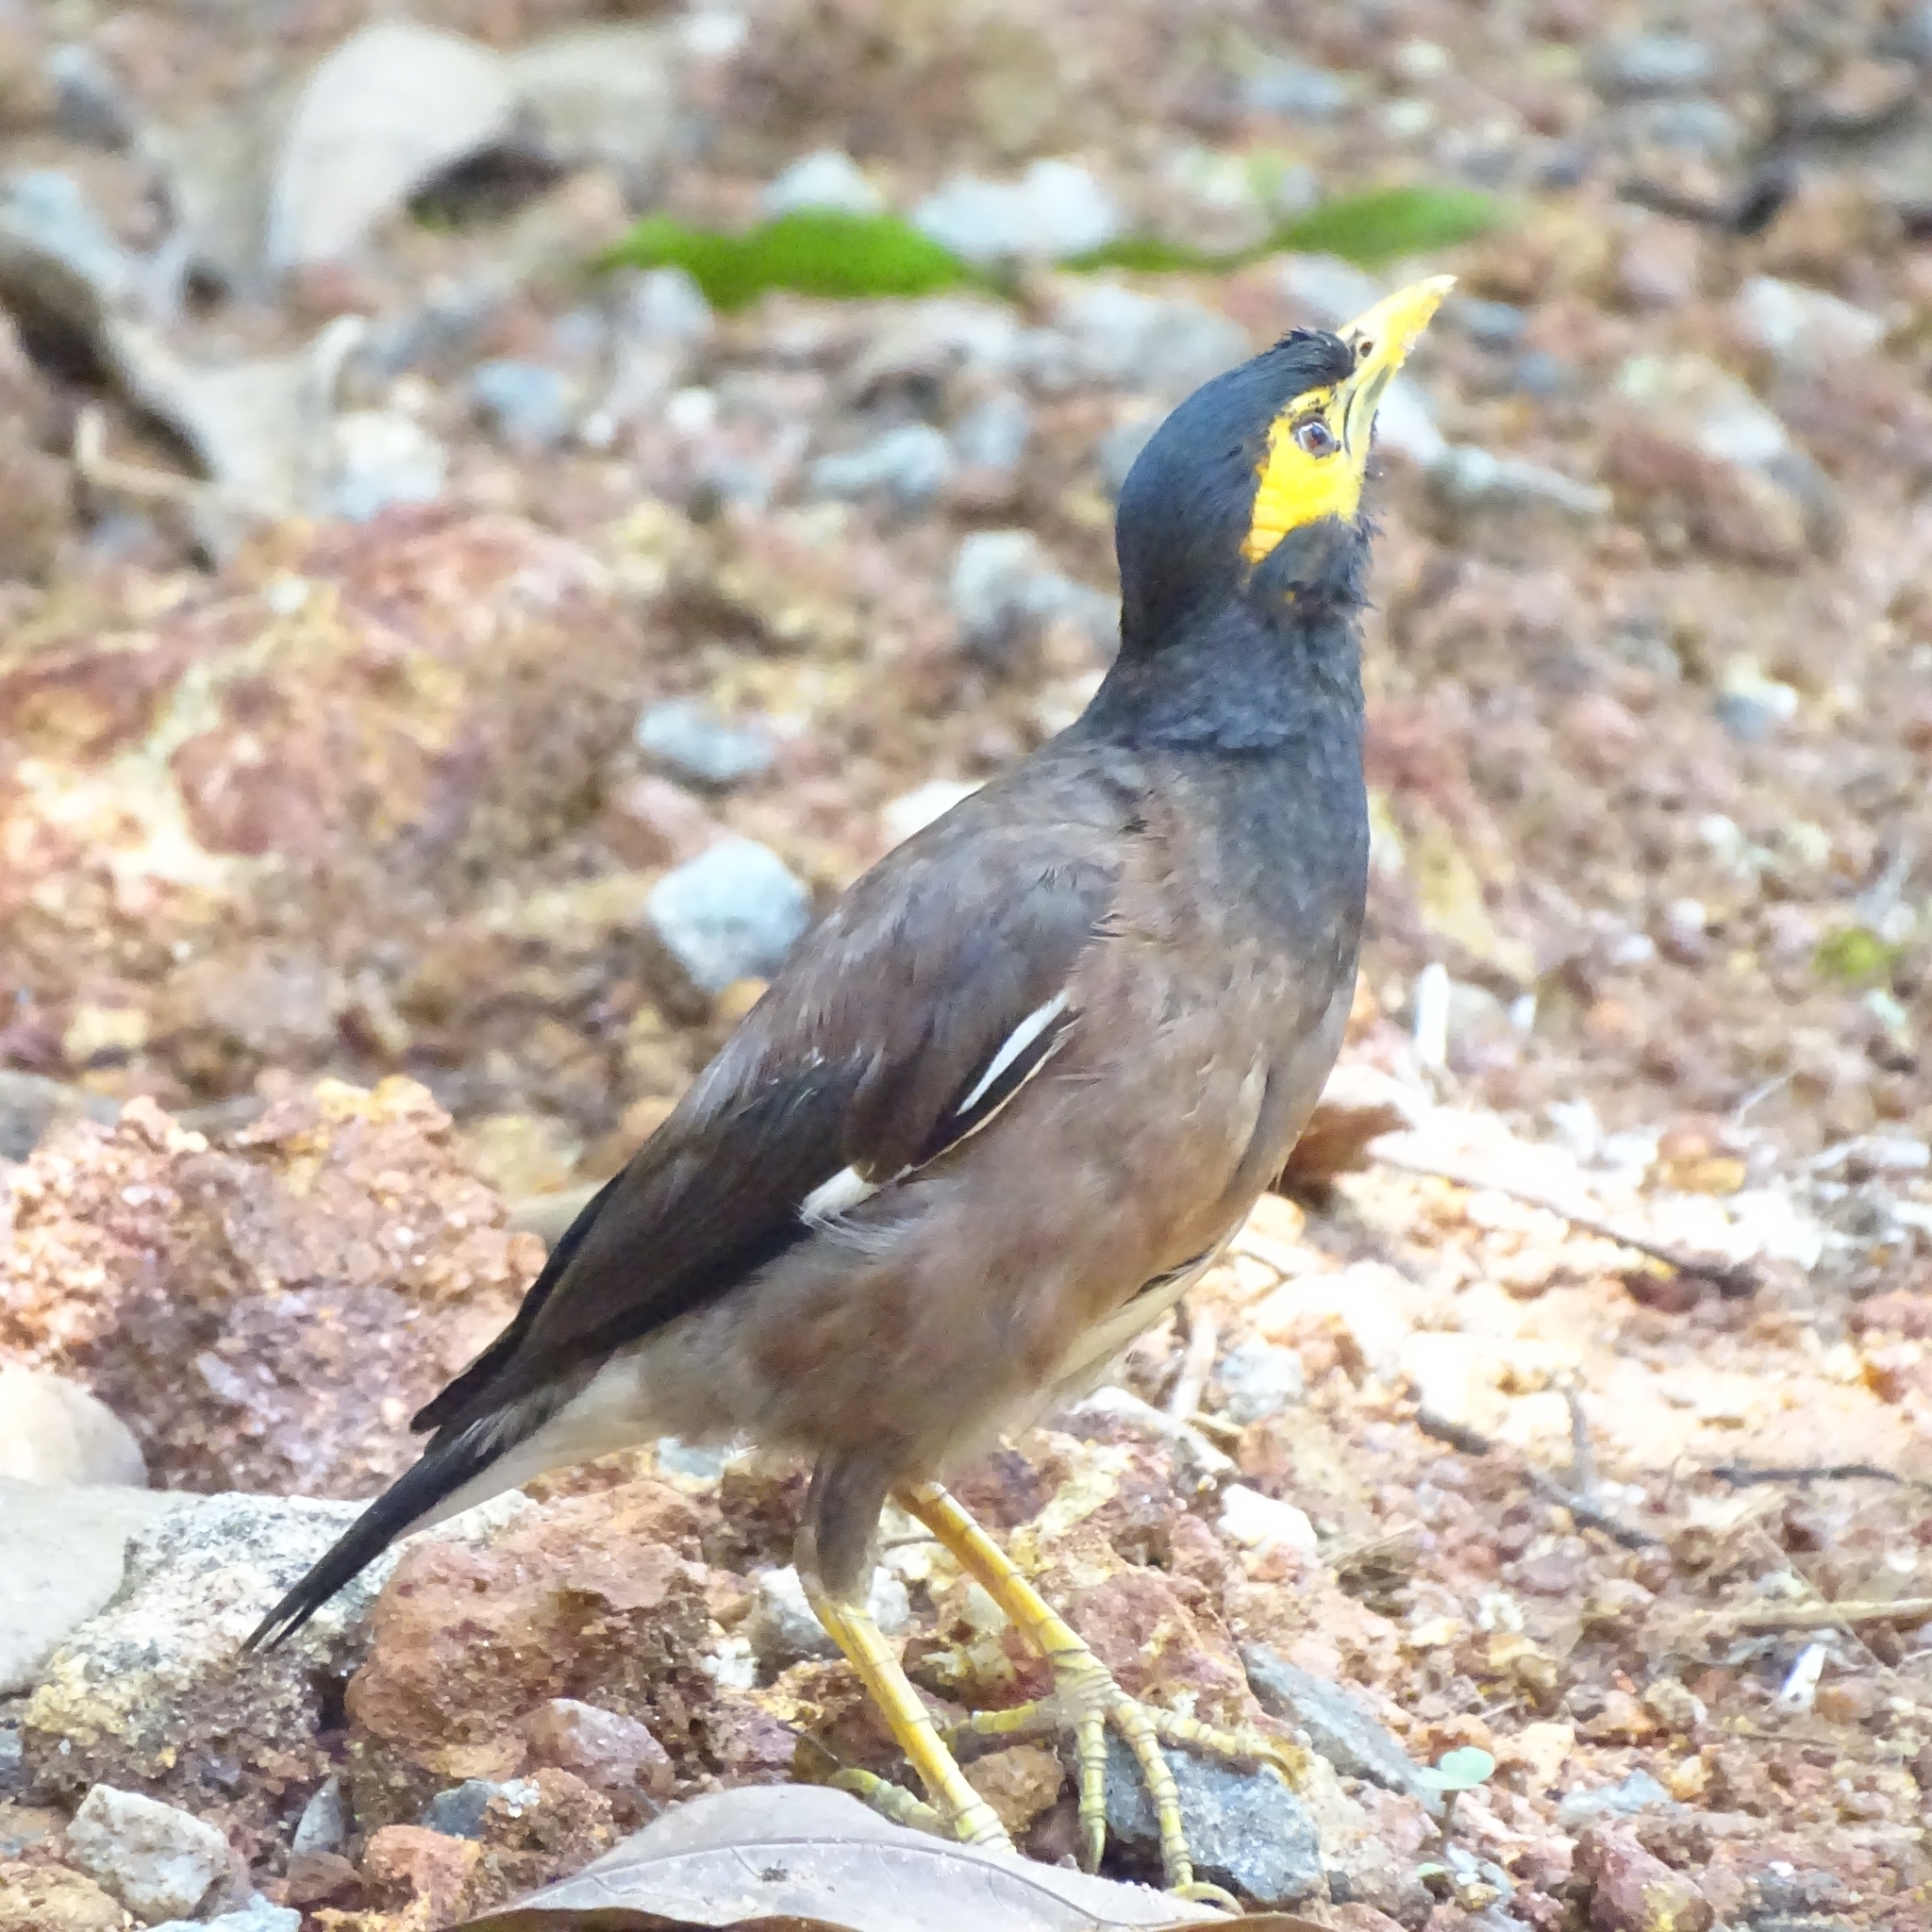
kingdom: Animalia
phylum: Chordata
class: Aves
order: Passeriformes
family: Sturnidae
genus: Acridotheres
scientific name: Acridotheres tristis
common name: Common myna
